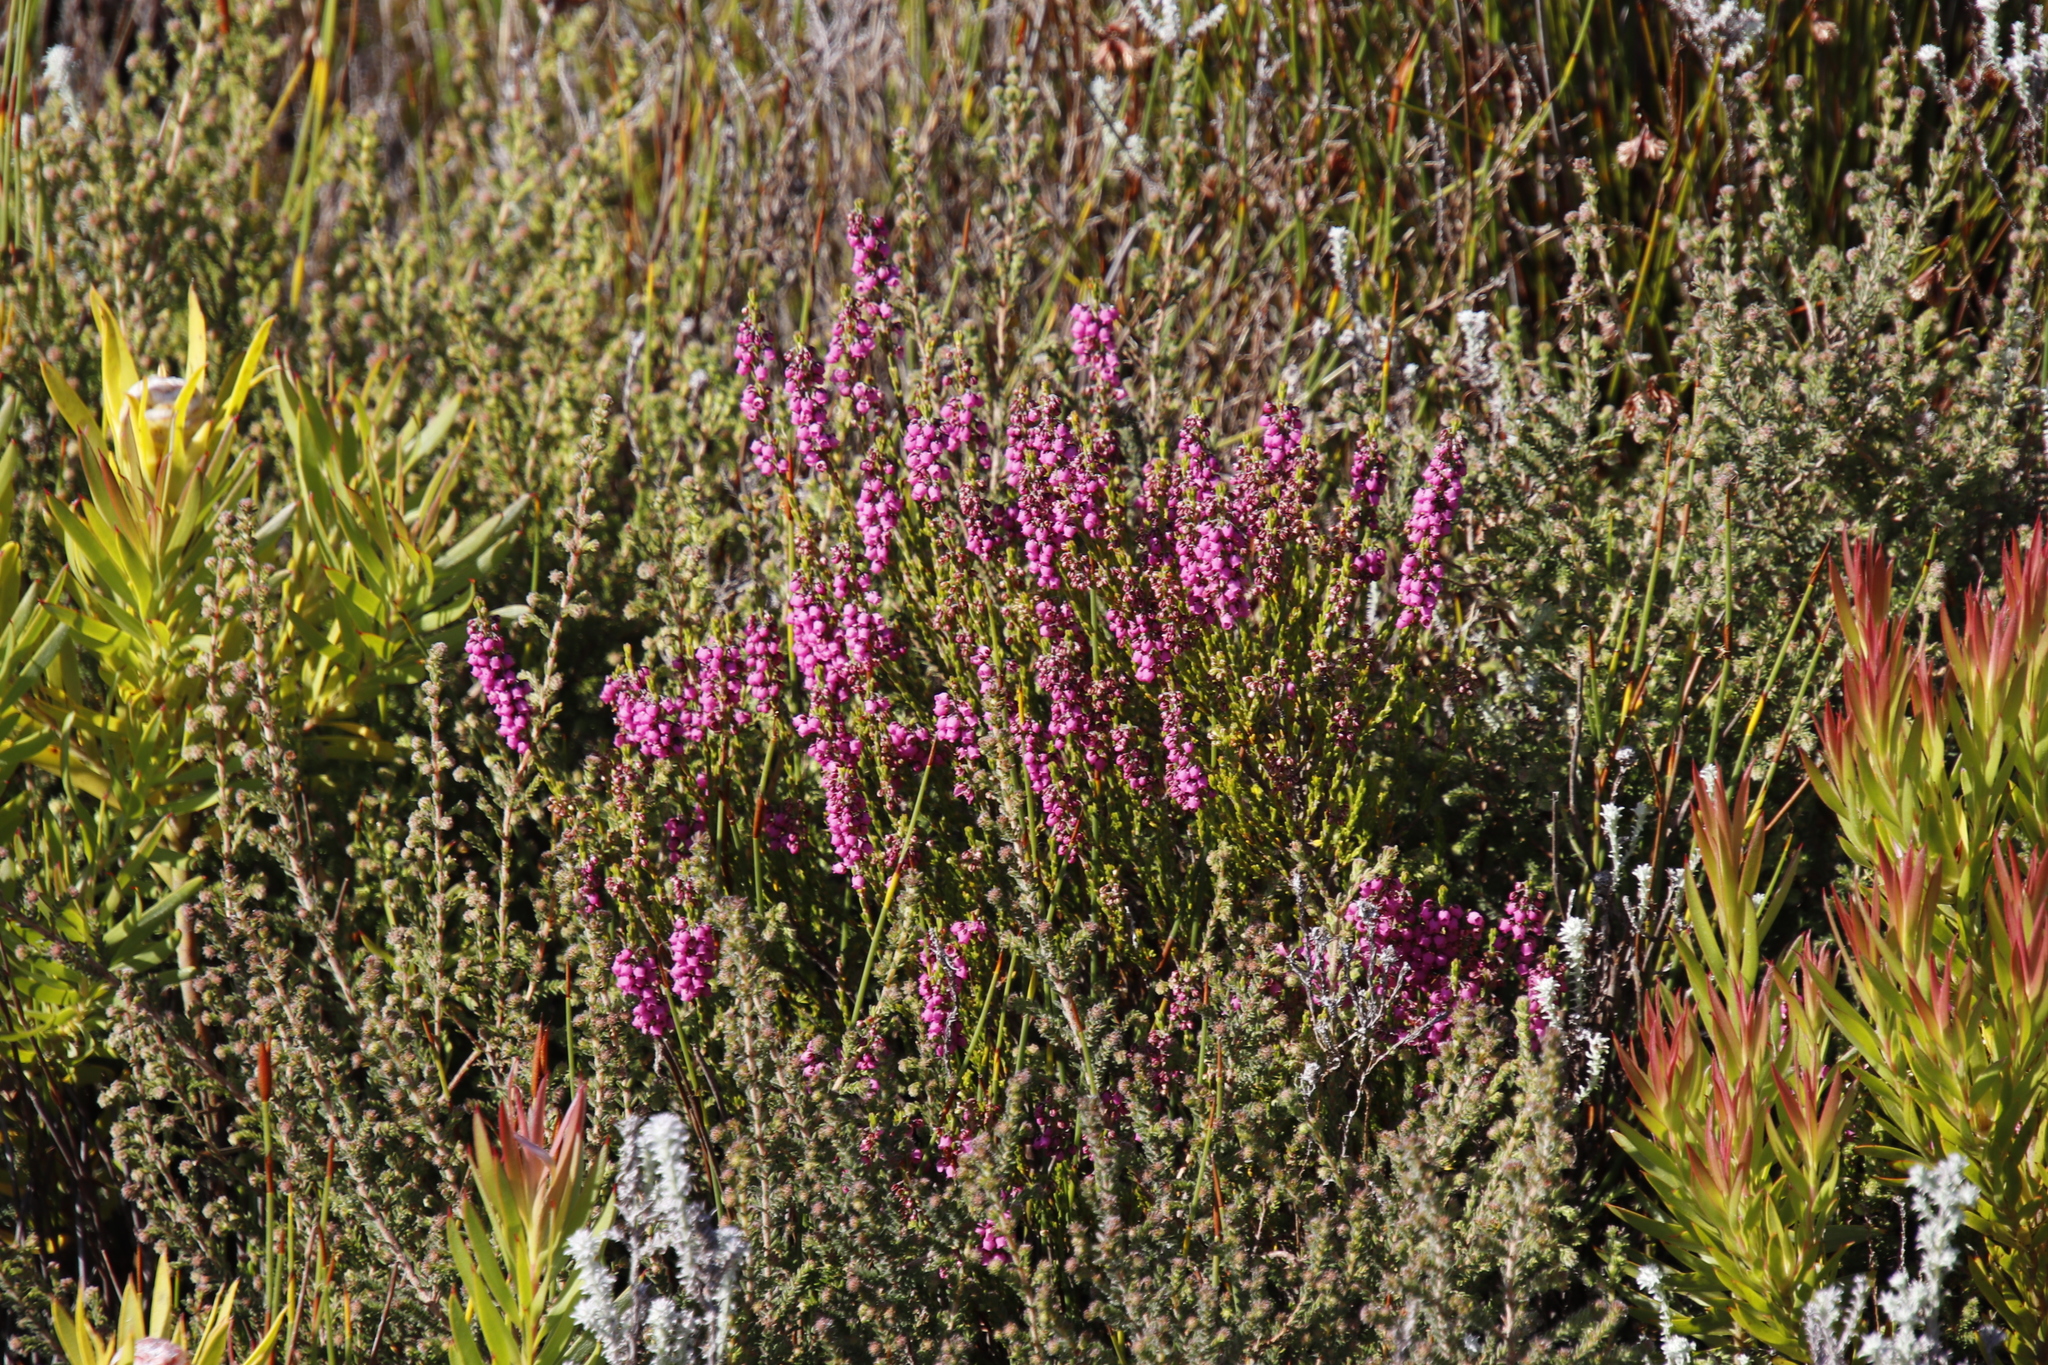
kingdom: Plantae
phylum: Tracheophyta
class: Magnoliopsida
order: Ericales
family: Ericaceae
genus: Erica
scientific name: Erica pulchella
